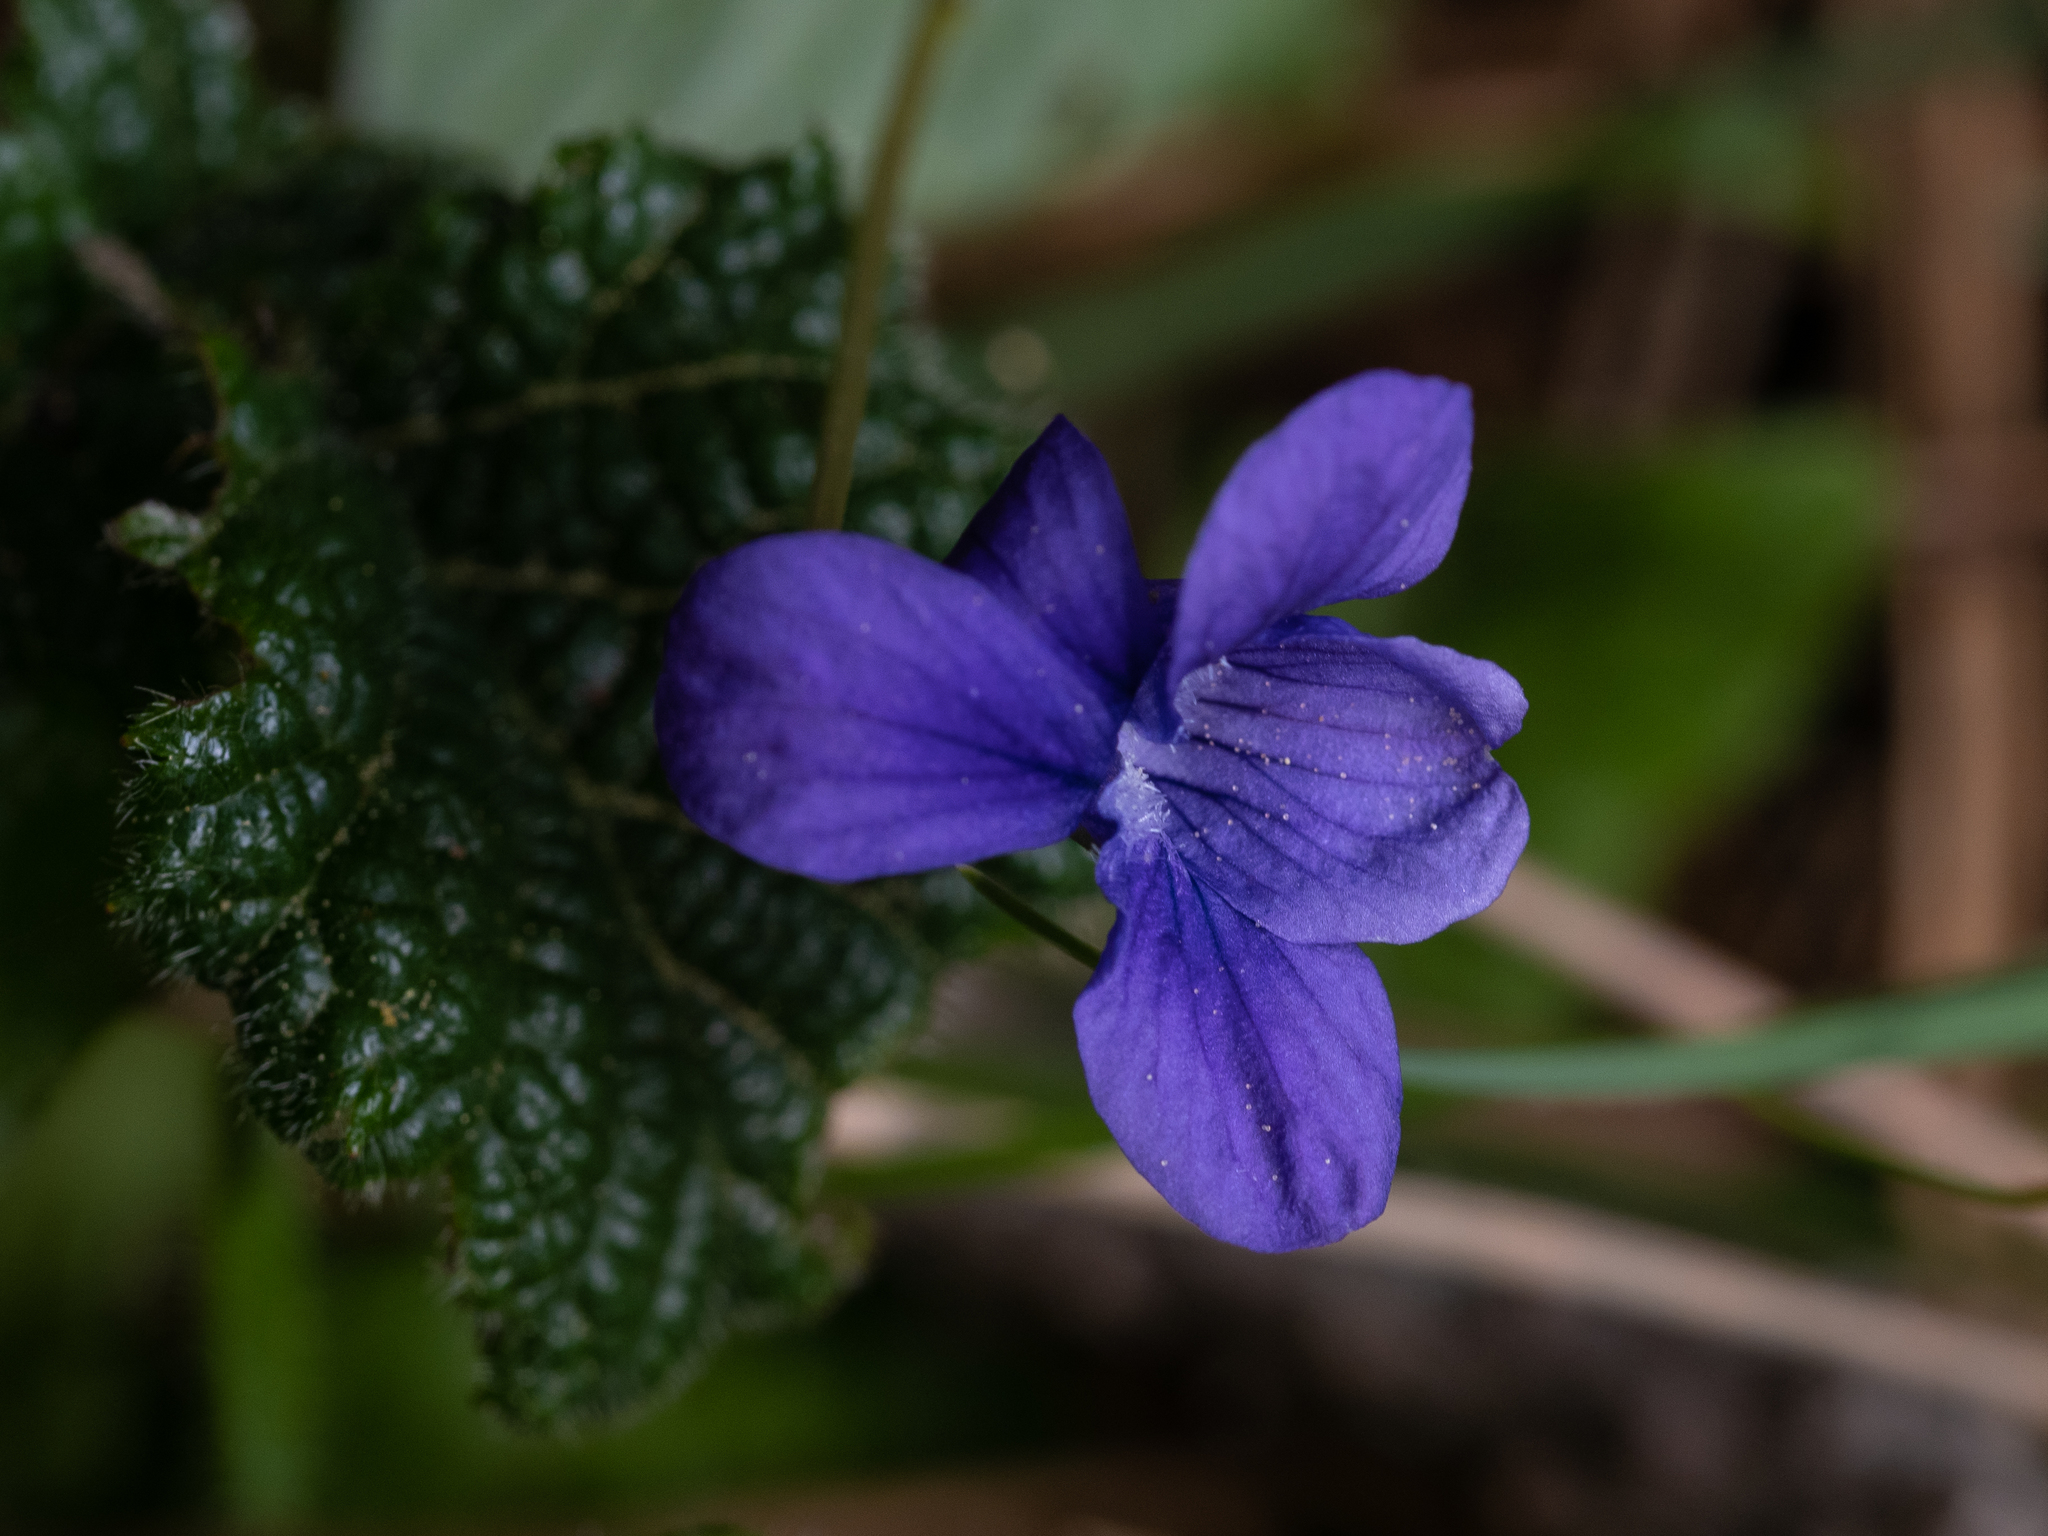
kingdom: Plantae
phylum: Tracheophyta
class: Magnoliopsida
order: Malpighiales
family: Violaceae
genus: Viola
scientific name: Viola adunca
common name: Sand violet
